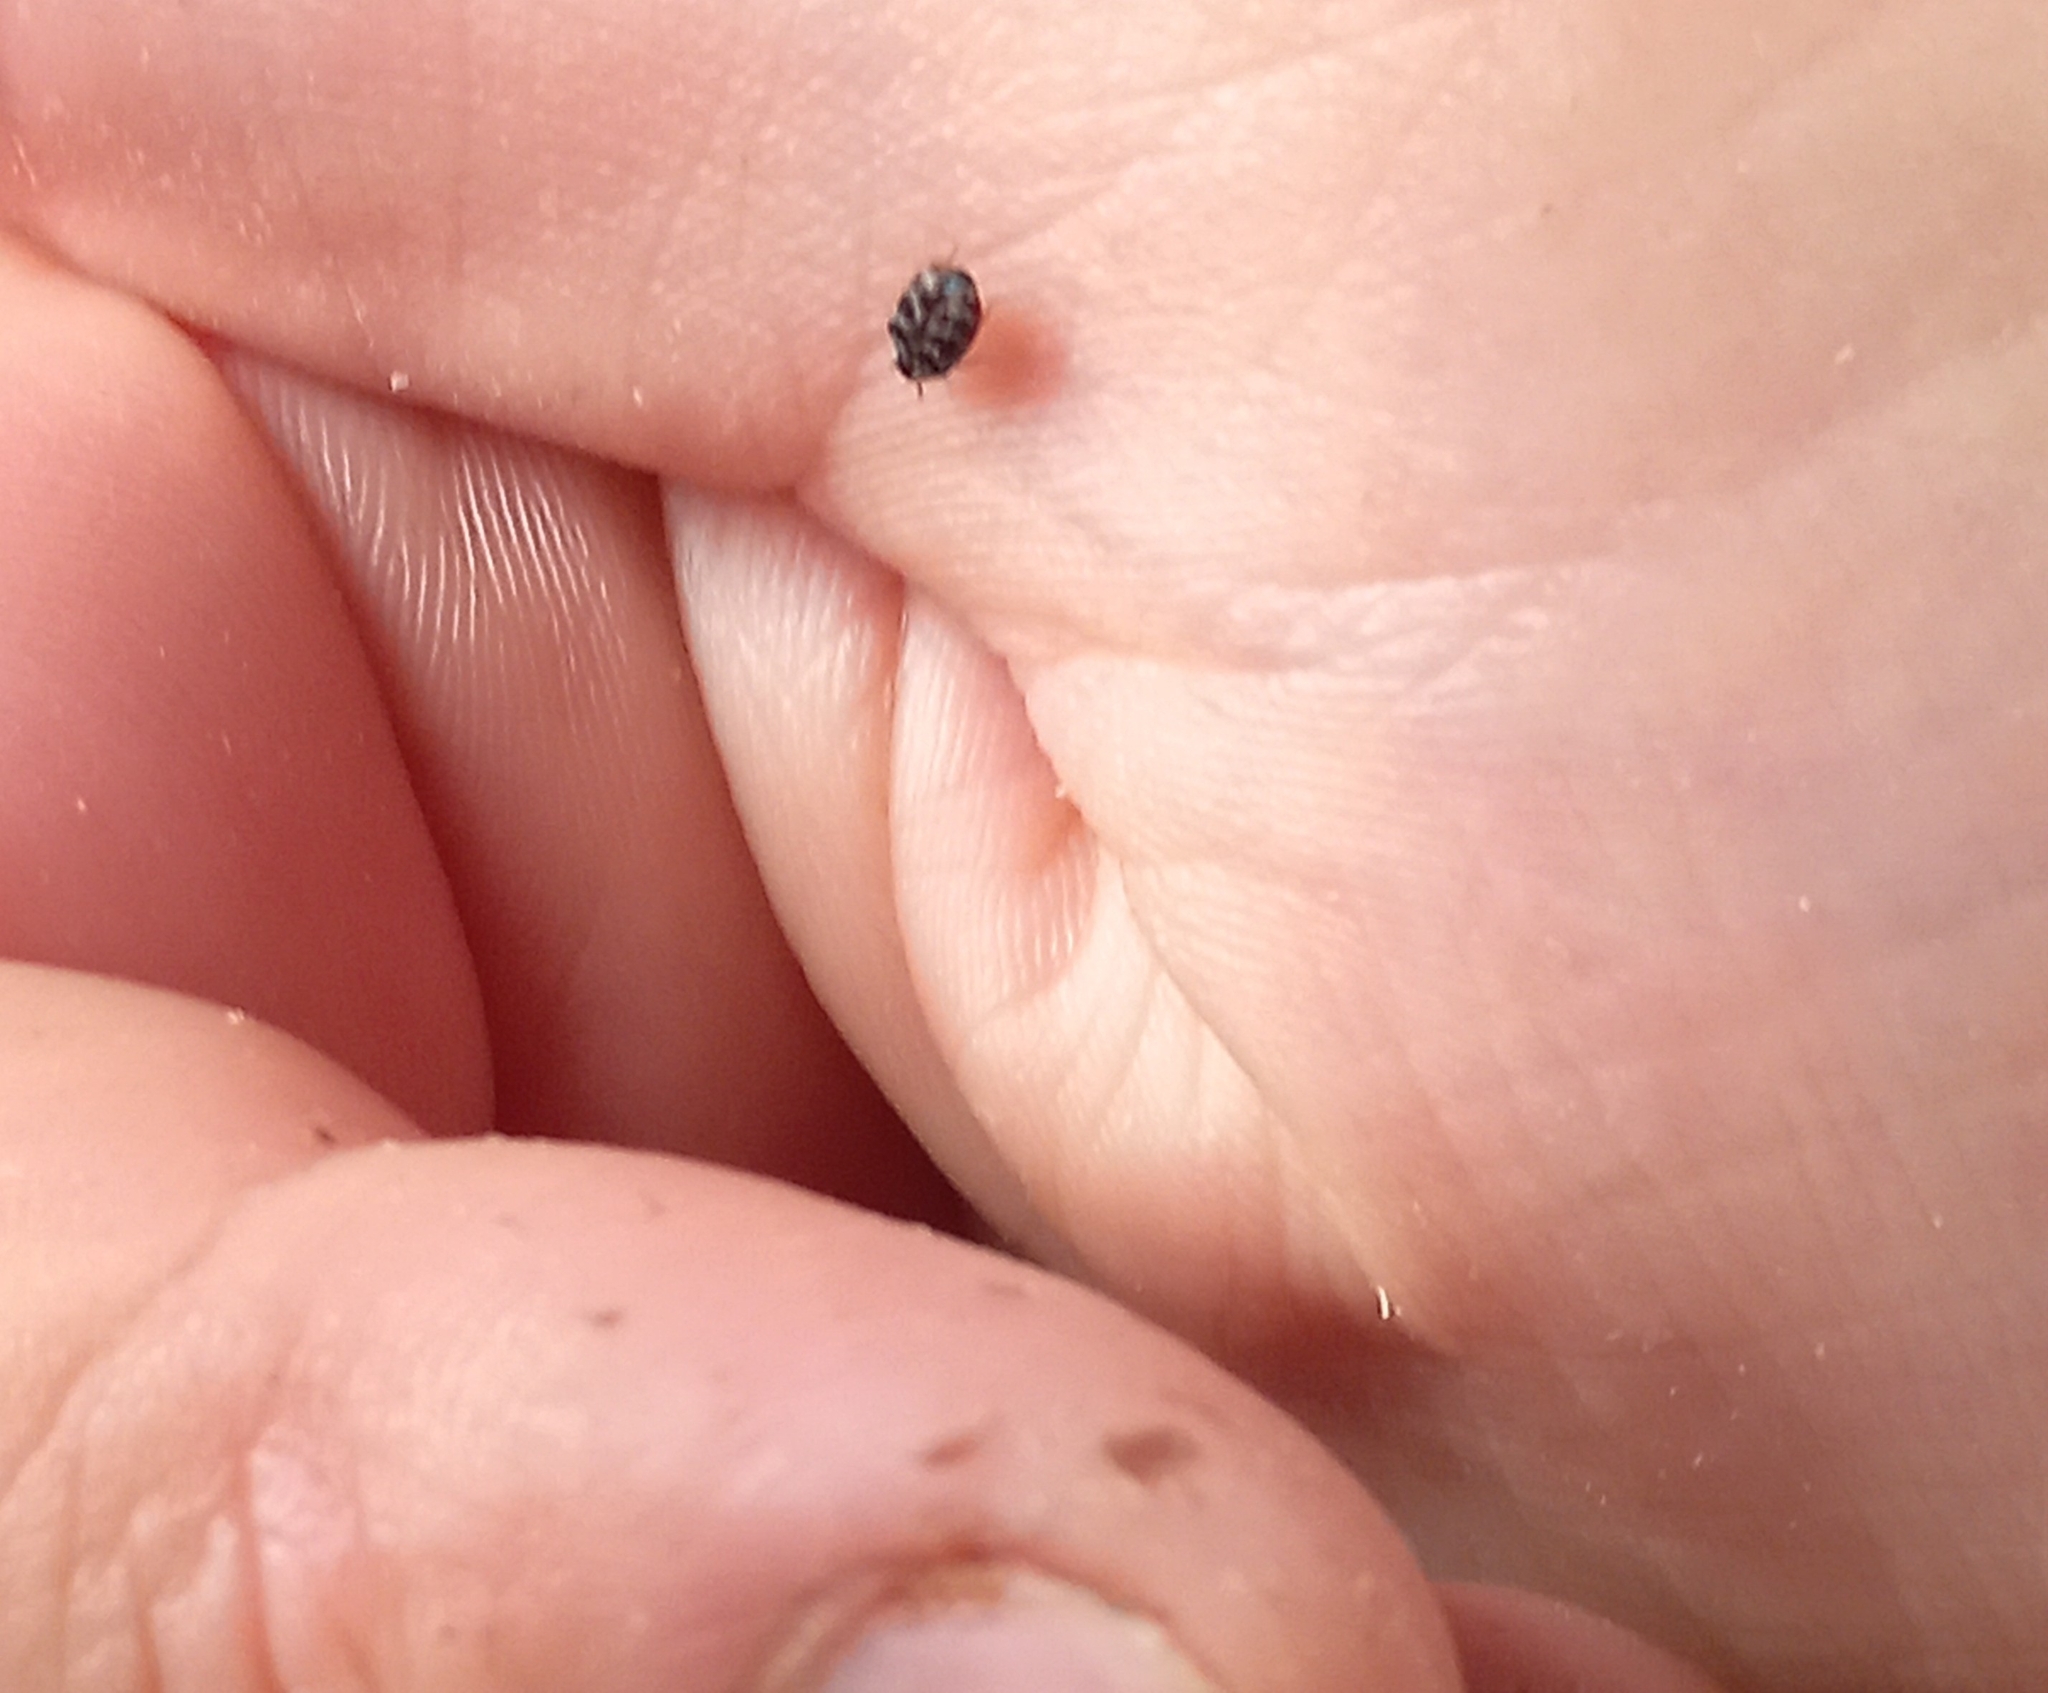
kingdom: Animalia
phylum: Arthropoda
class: Insecta
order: Coleoptera
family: Dermestidae
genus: Anthrenocerus
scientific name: Anthrenocerus australis
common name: Australian carpet beetle
